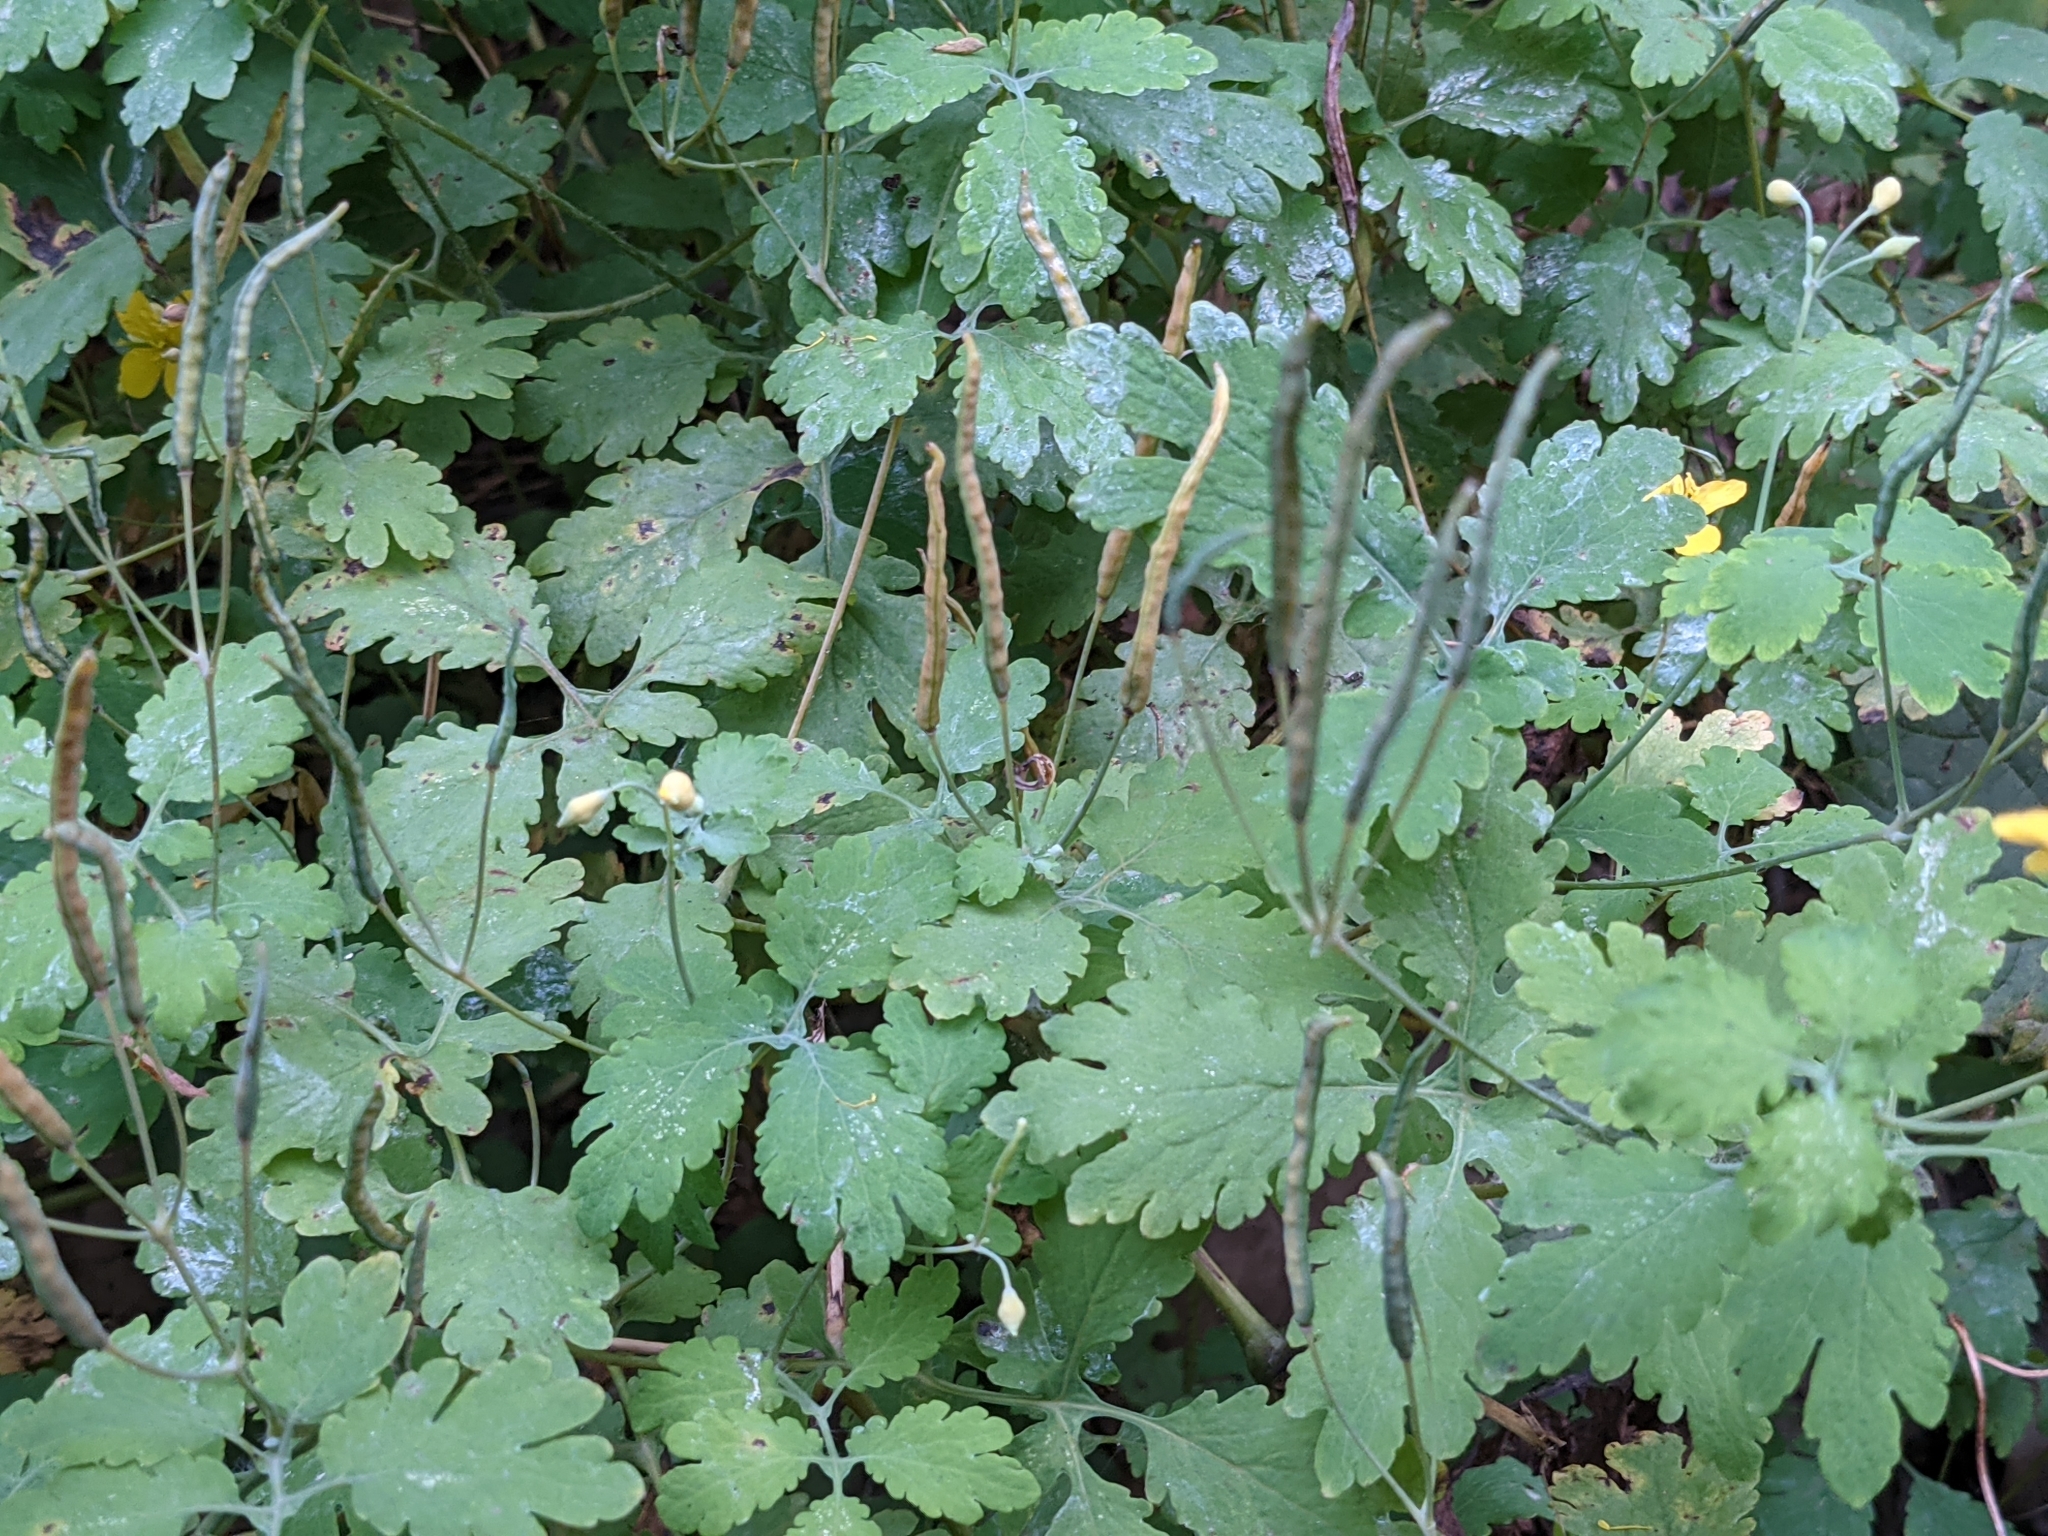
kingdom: Plantae
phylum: Tracheophyta
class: Magnoliopsida
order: Ranunculales
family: Papaveraceae
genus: Chelidonium
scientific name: Chelidonium majus
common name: Greater celandine
